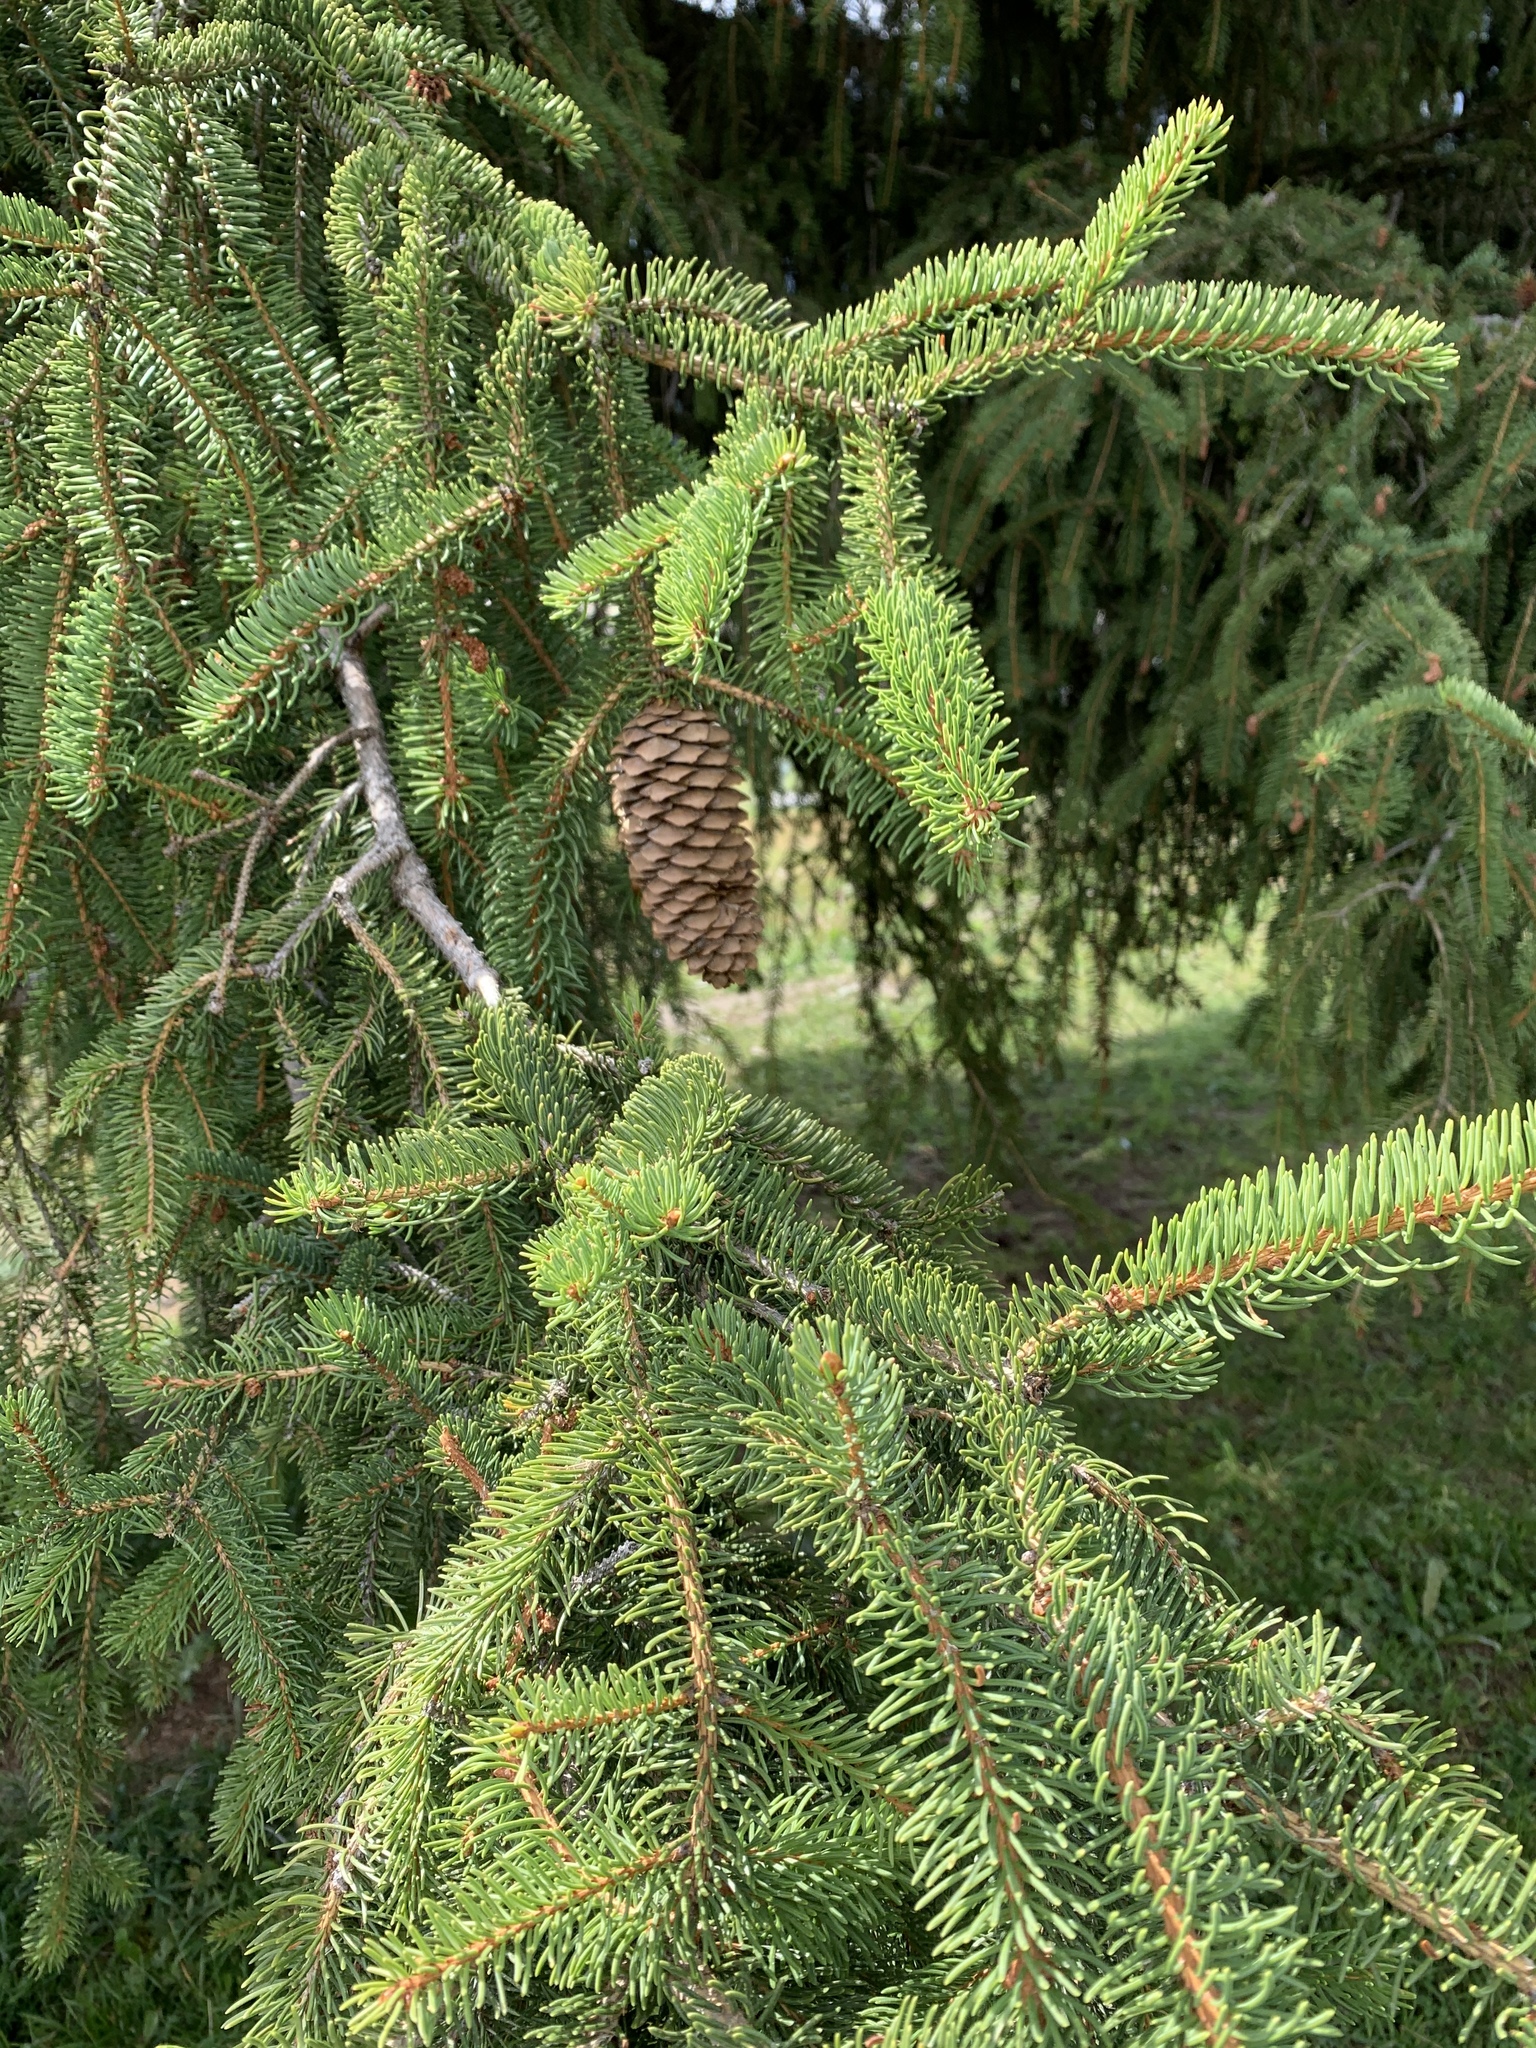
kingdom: Plantae
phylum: Tracheophyta
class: Pinopsida
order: Pinales
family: Pinaceae
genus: Picea
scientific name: Picea abies
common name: Norway spruce
